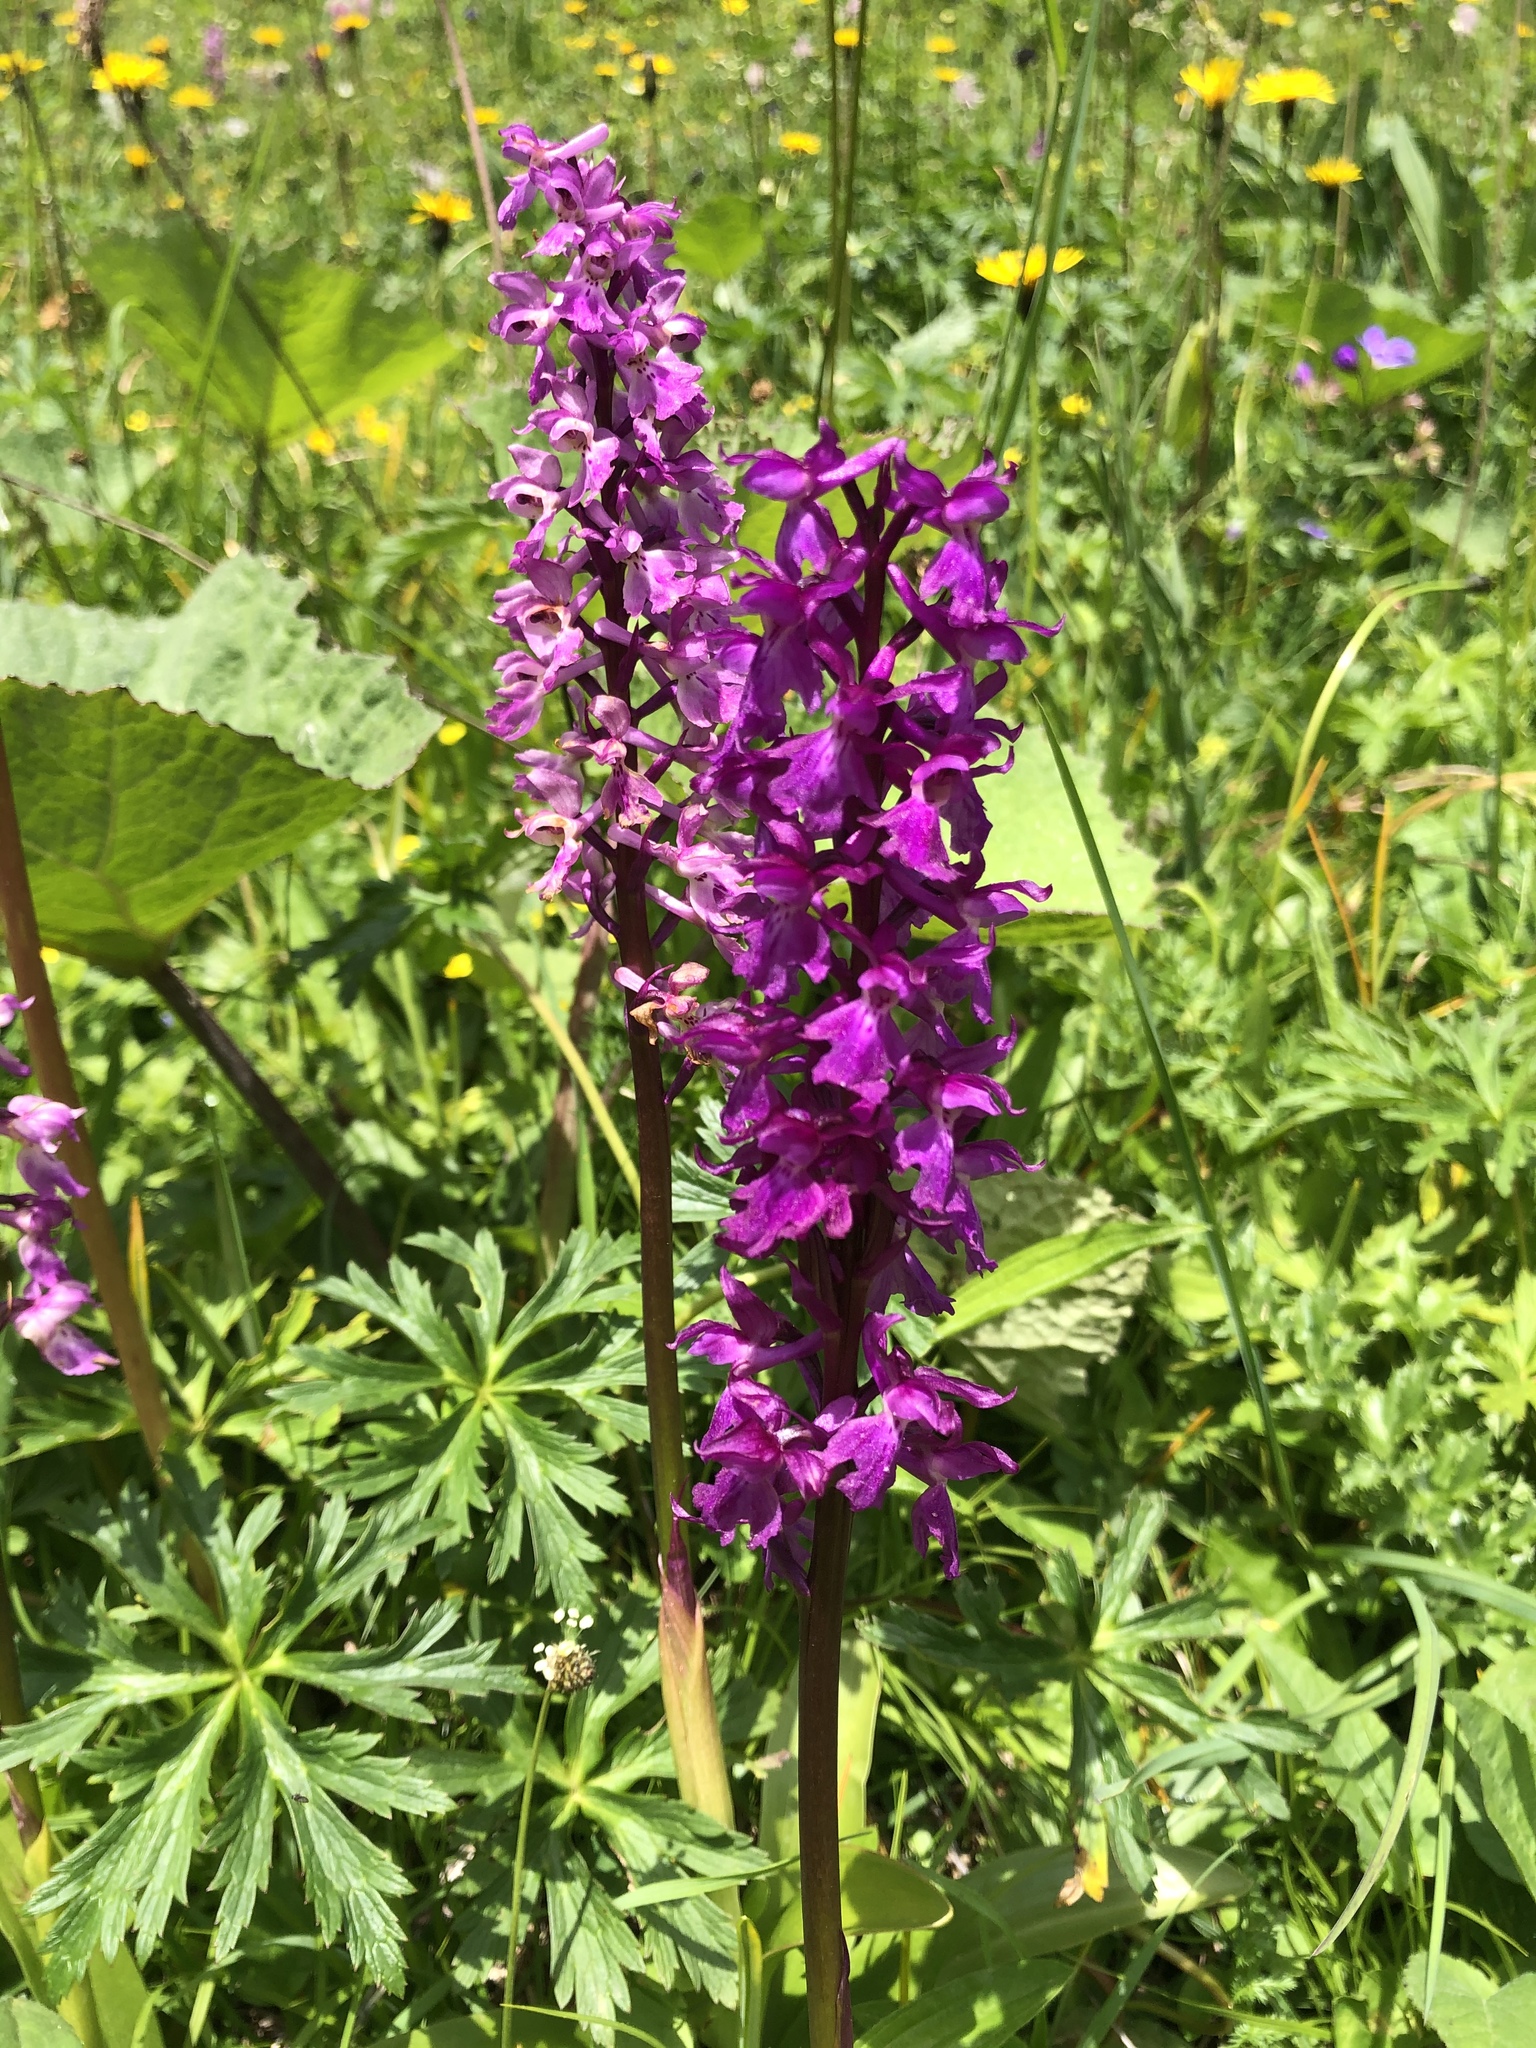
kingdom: Plantae
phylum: Tracheophyta
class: Liliopsida
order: Asparagales
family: Orchidaceae
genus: Orchis
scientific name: Orchis mascula
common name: Early-purple orchid
